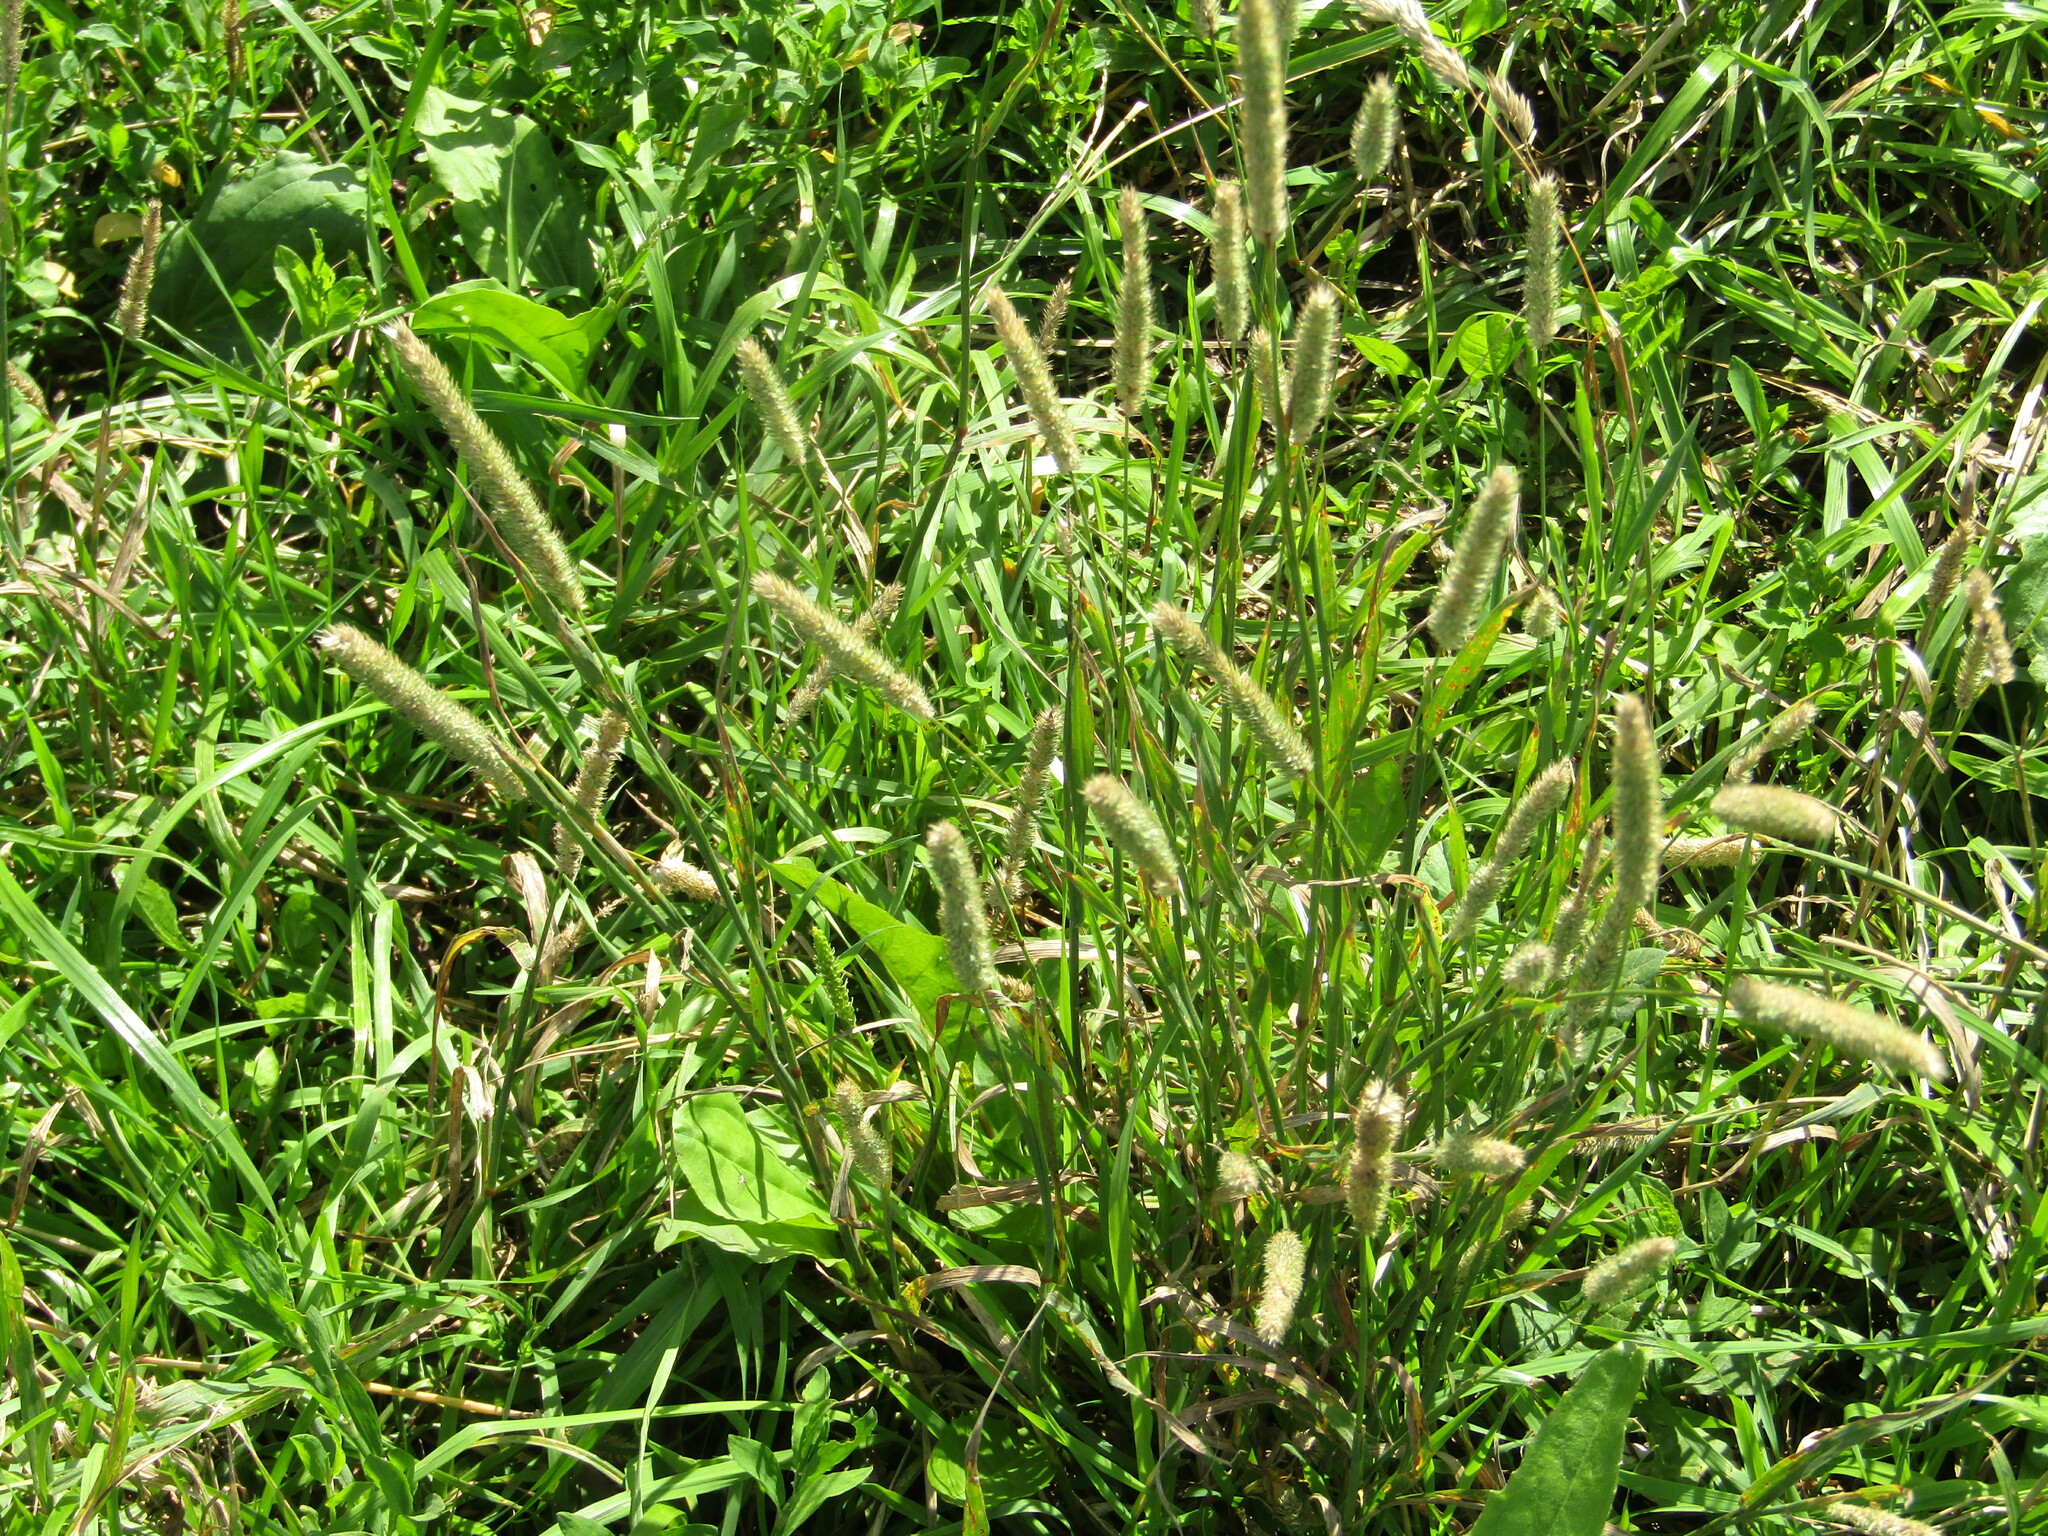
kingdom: Plantae
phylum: Tracheophyta
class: Liliopsida
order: Poales
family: Poaceae
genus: Phleum
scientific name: Phleum pratense
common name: Timothy grass
